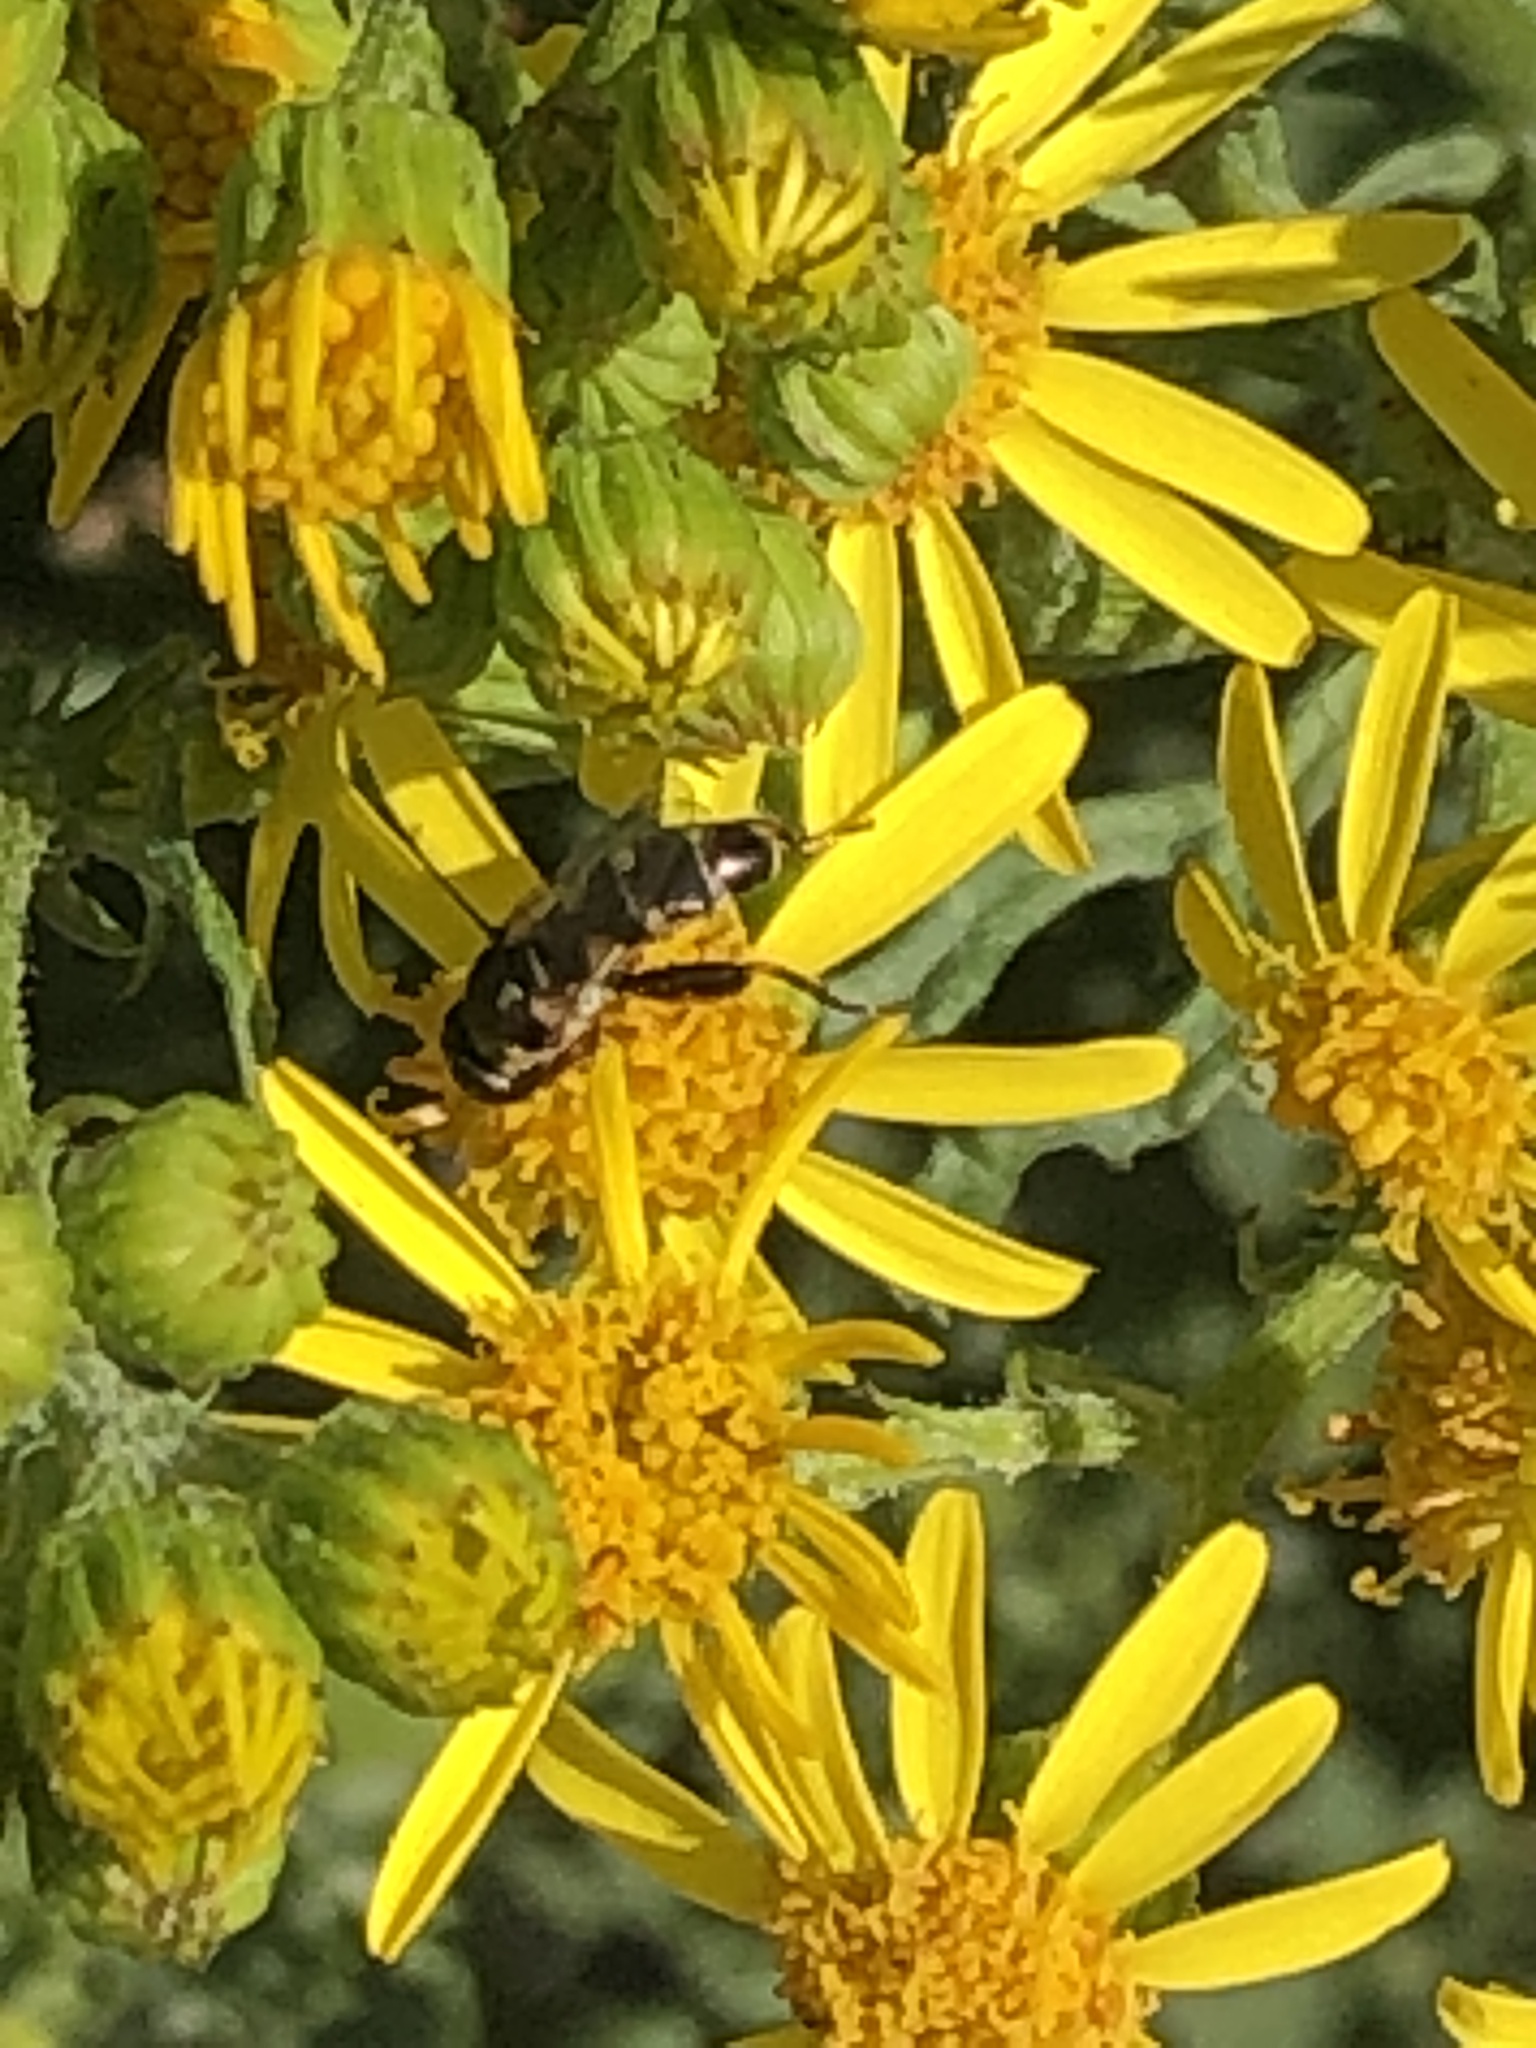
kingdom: Animalia
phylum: Arthropoda
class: Insecta
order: Diptera
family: Syrphidae
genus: Syritta
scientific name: Syritta pipiens
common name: Hover fly
